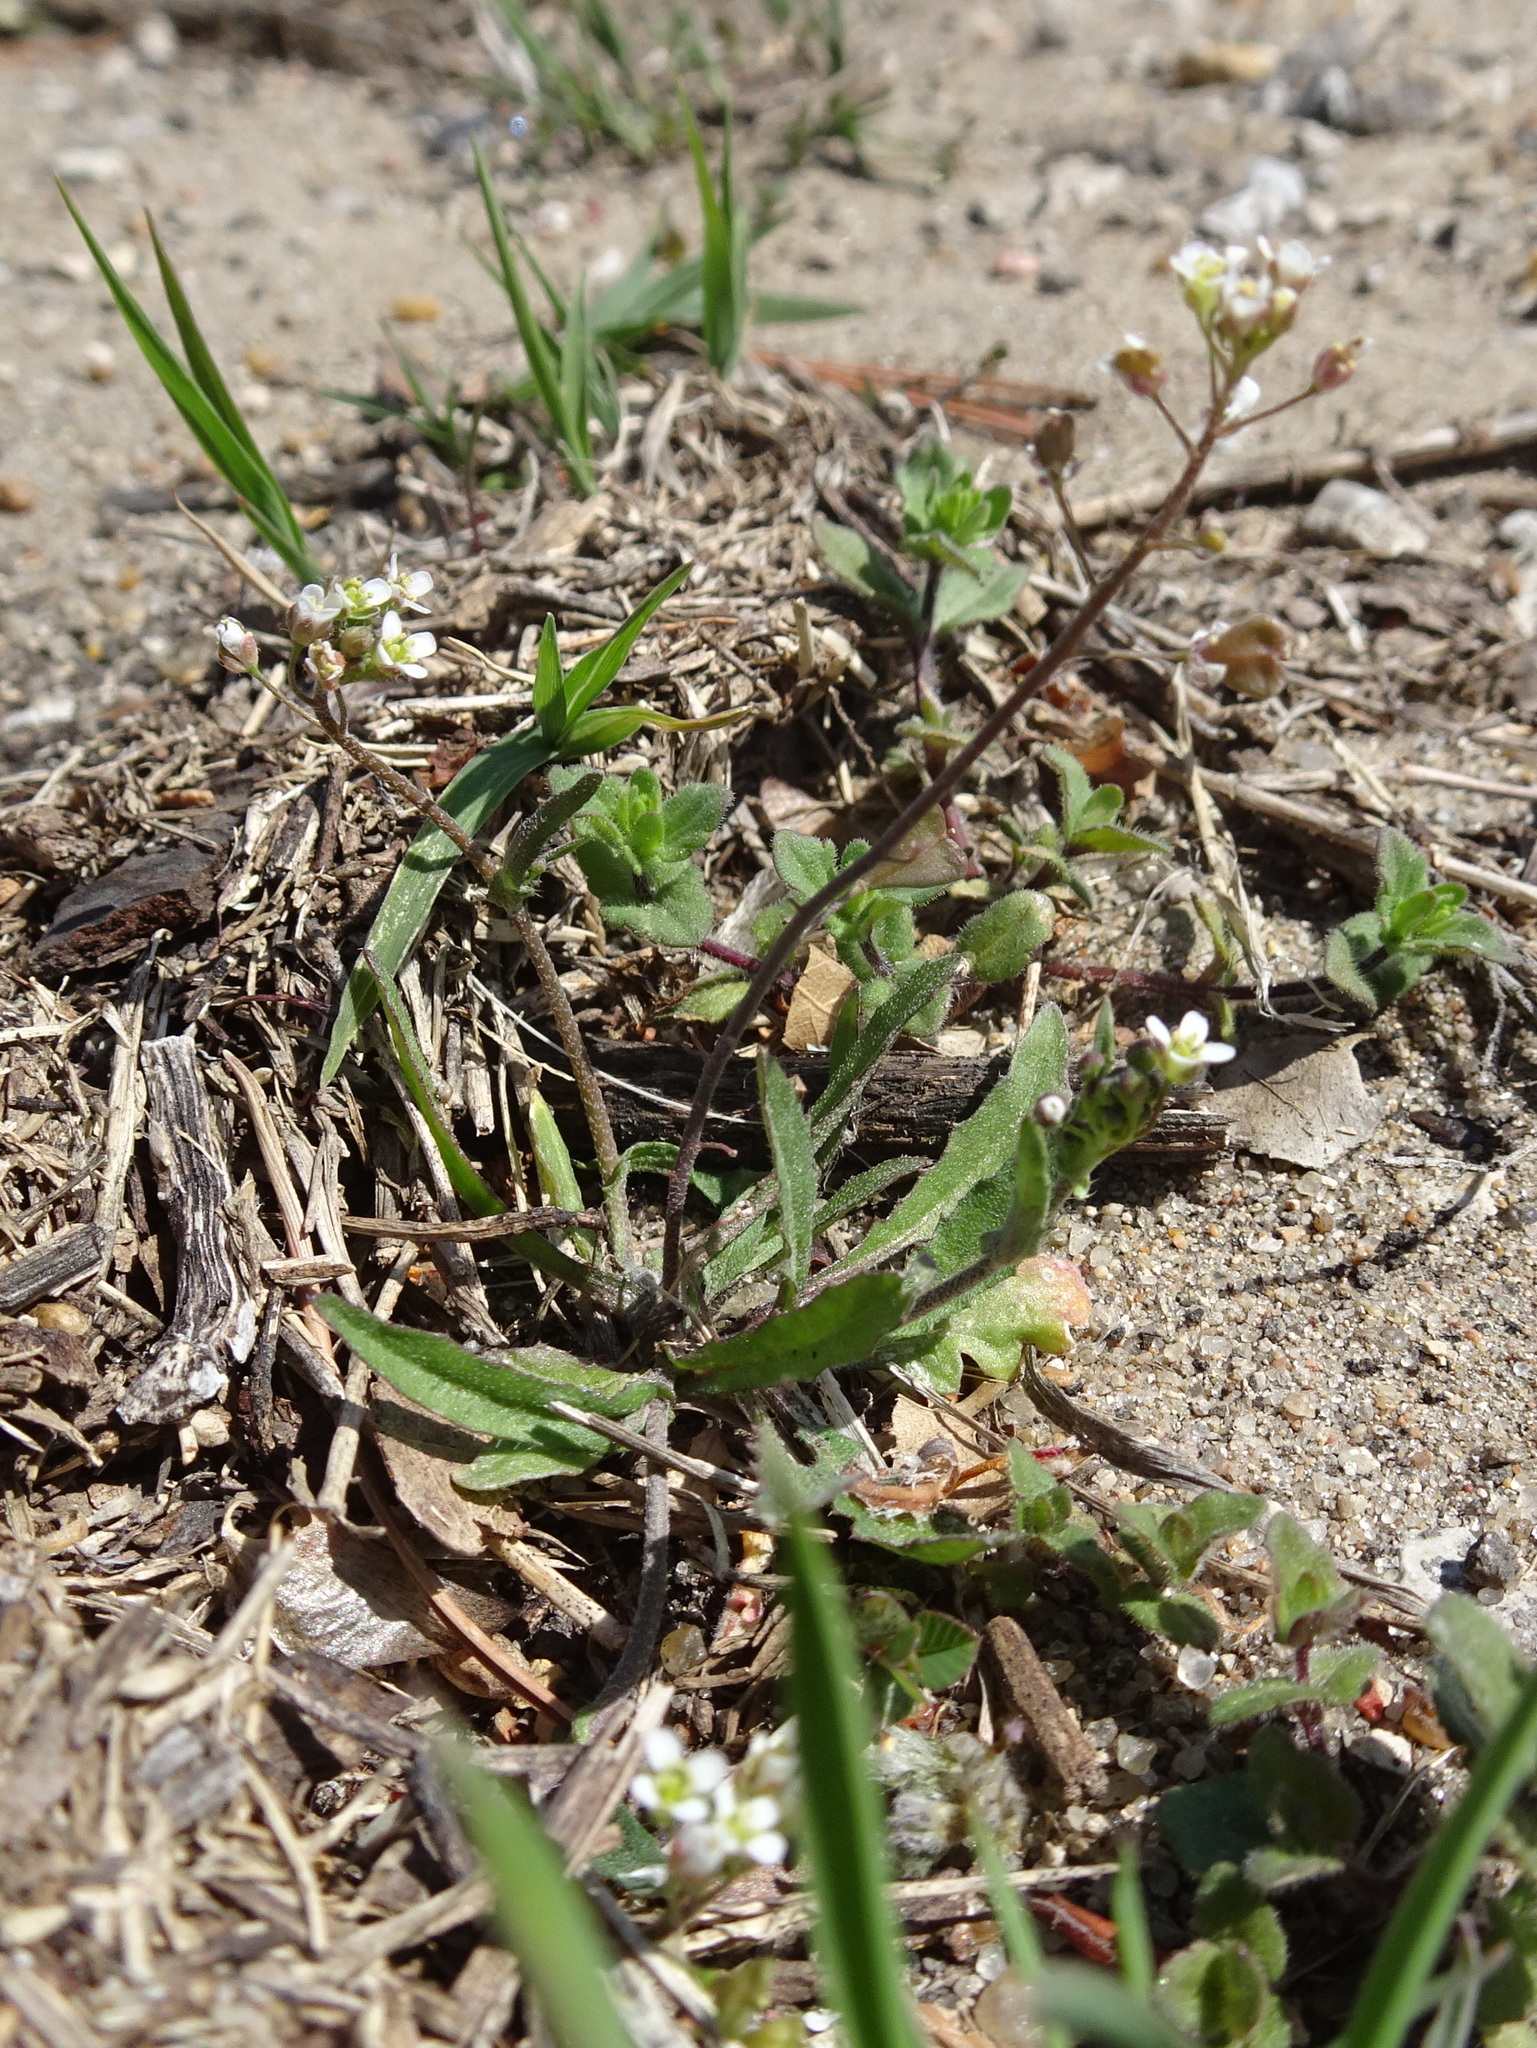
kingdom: Plantae
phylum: Tracheophyta
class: Magnoliopsida
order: Brassicales
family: Brassicaceae
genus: Capsella
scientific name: Capsella bursa-pastoris
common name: Shepherd's purse
